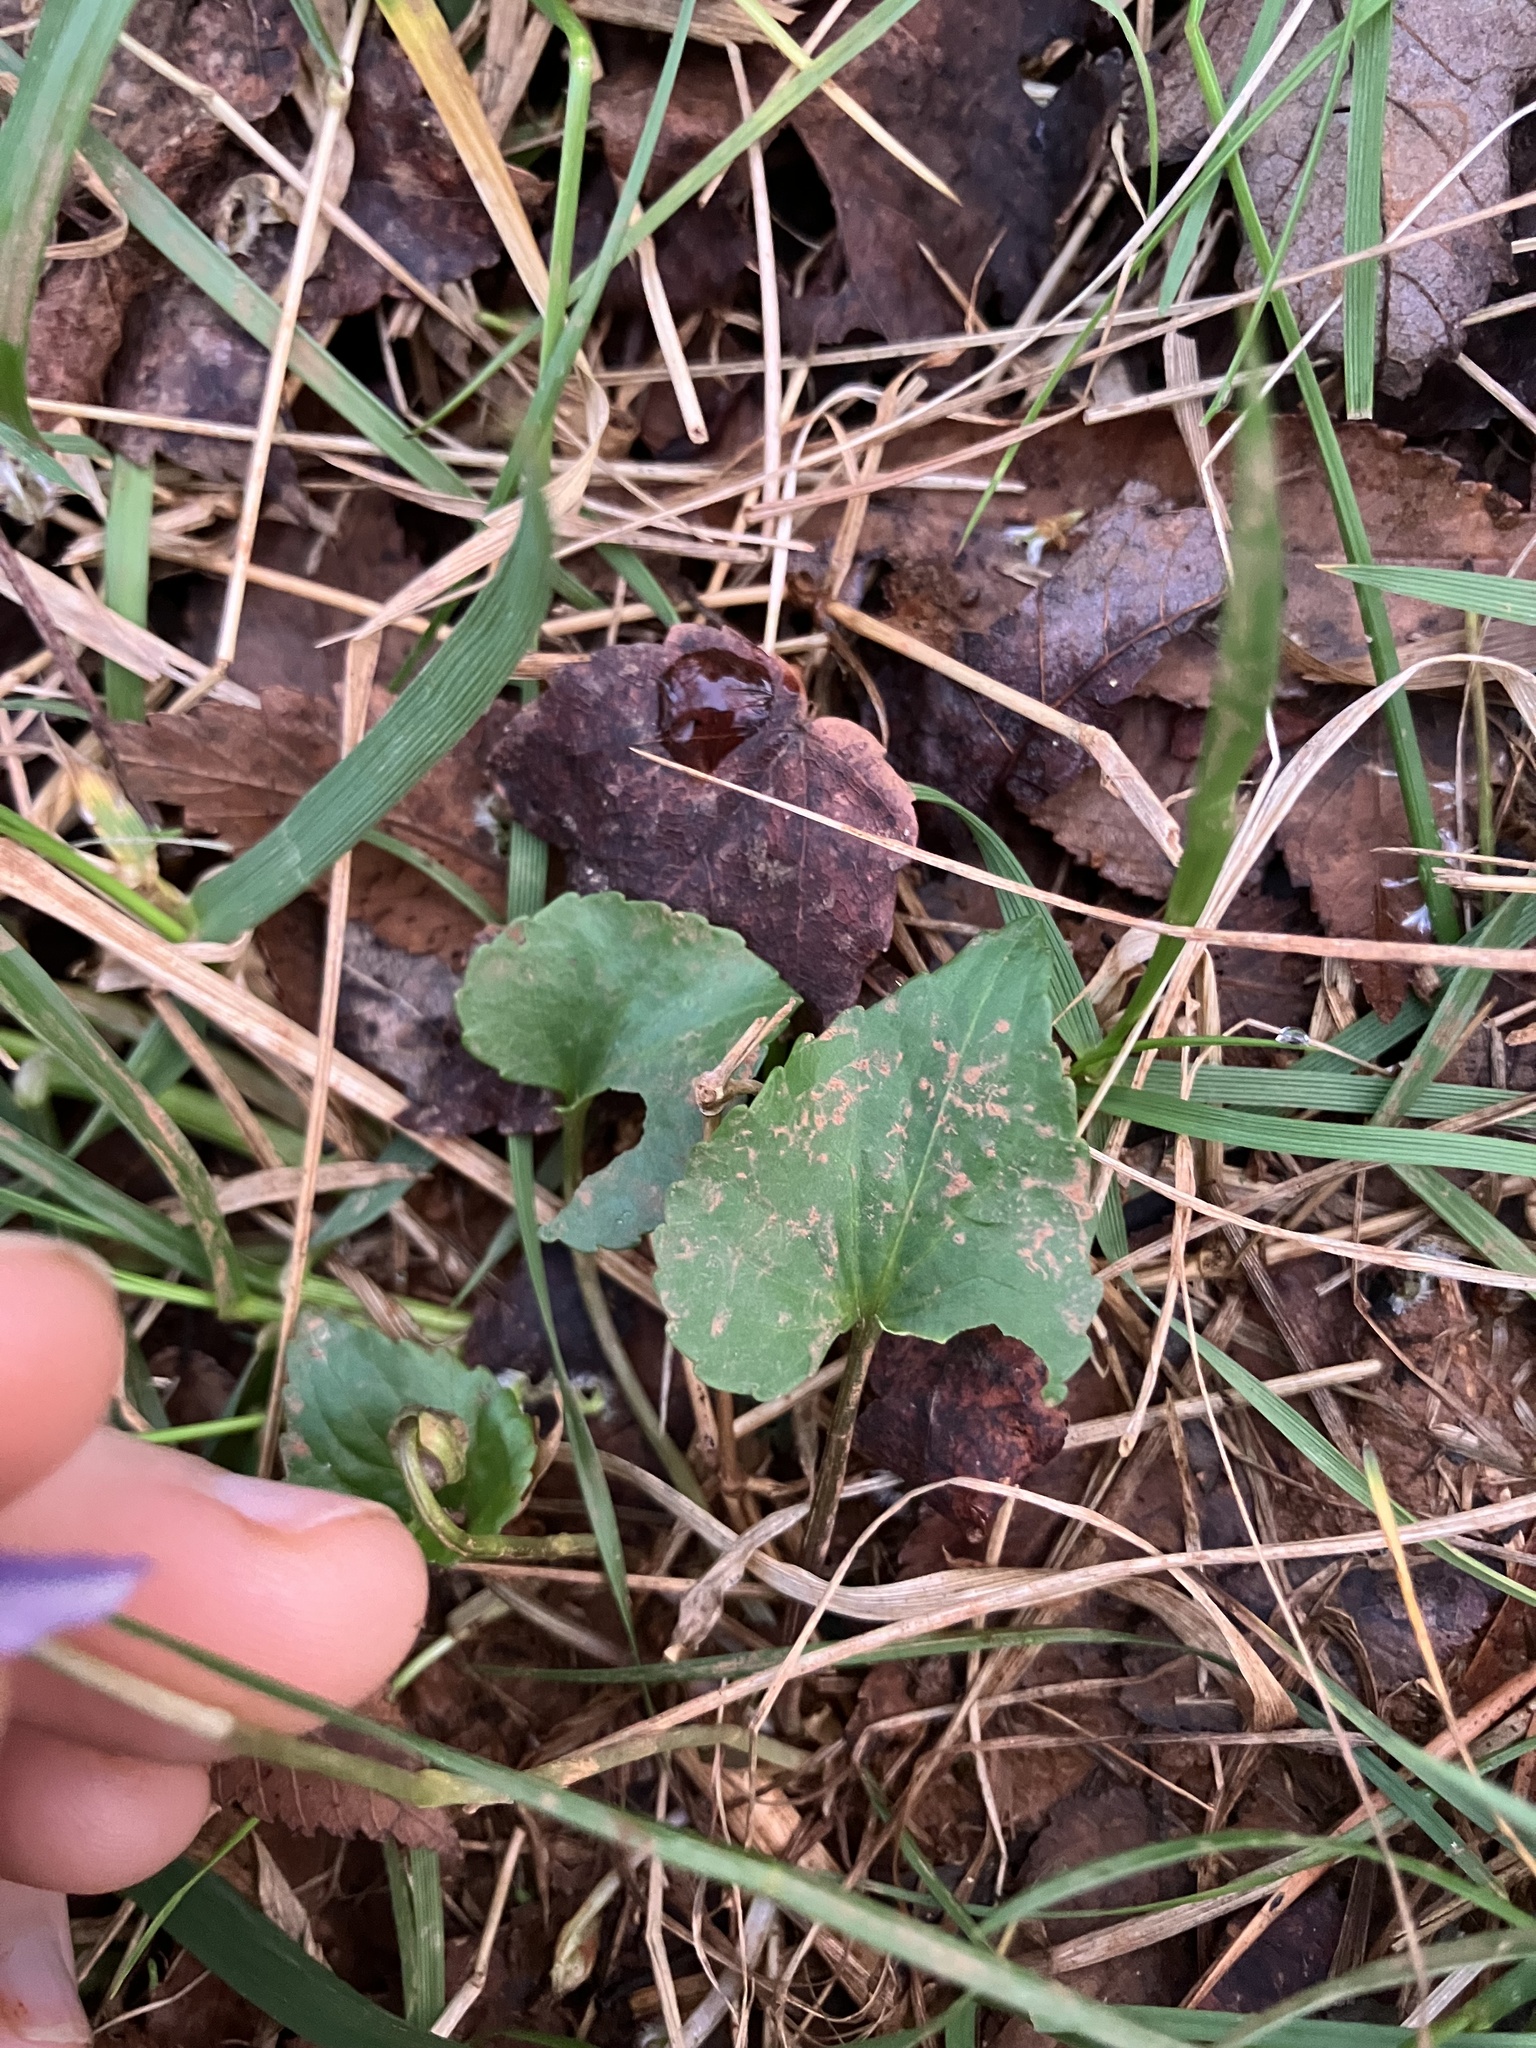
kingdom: Plantae
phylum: Tracheophyta
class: Magnoliopsida
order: Malpighiales
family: Violaceae
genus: Viola
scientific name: Viola cucullata
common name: Marsh blue violet
